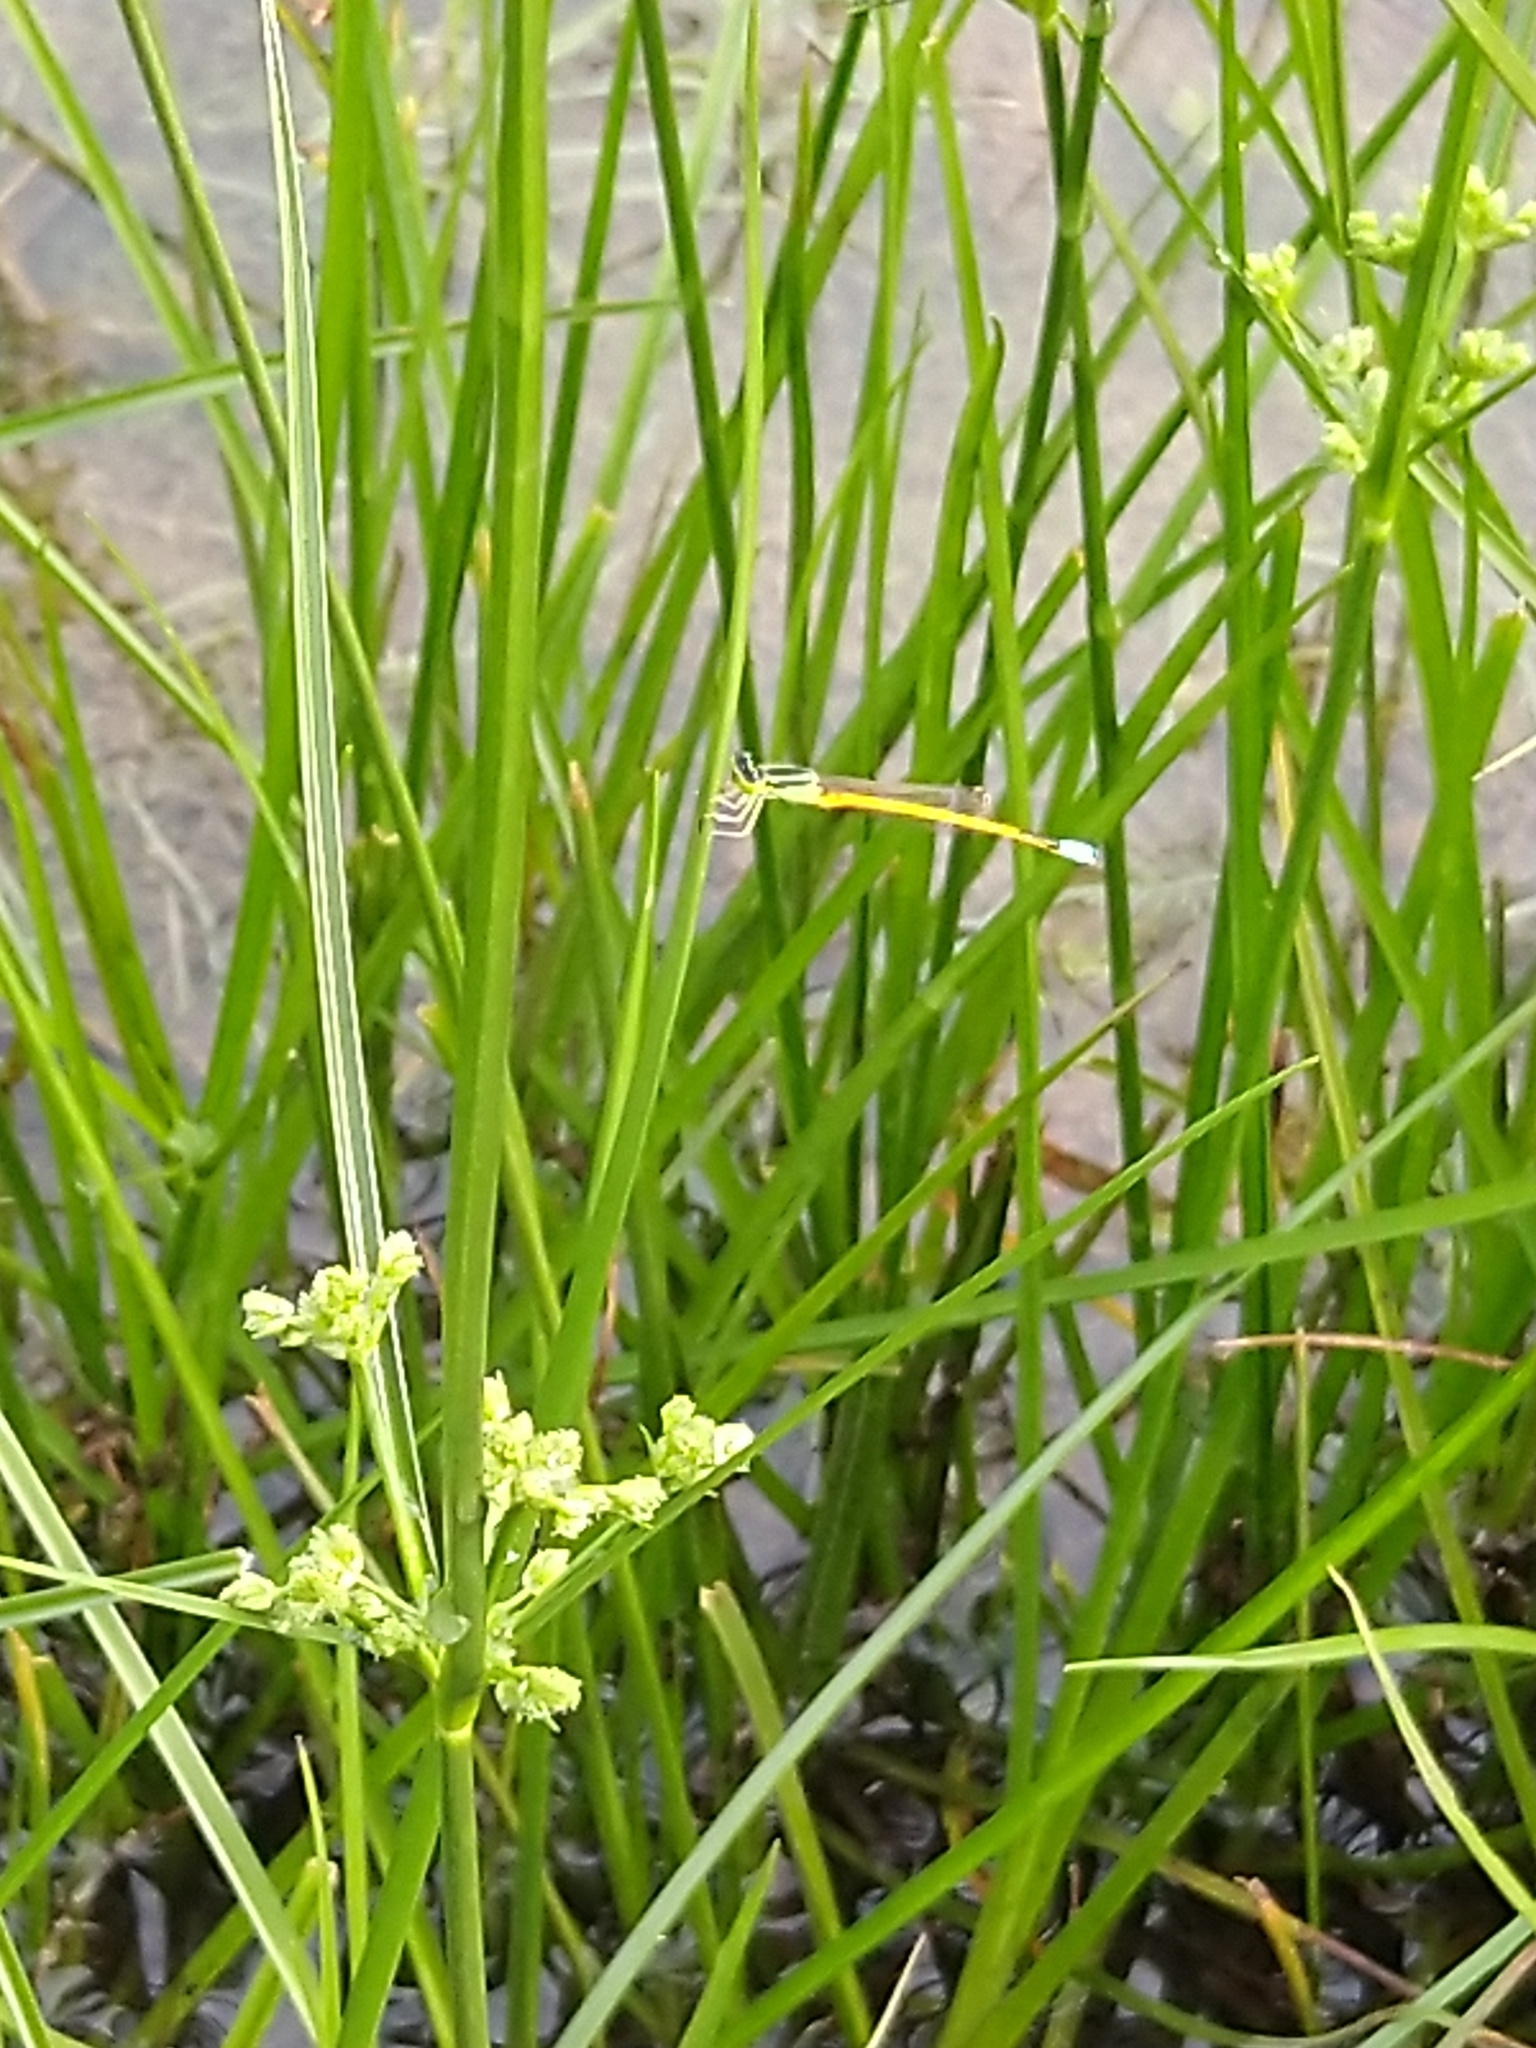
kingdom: Animalia
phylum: Arthropoda
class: Insecta
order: Odonata
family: Coenagrionidae
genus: Ischnura
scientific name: Ischnura rubilio
